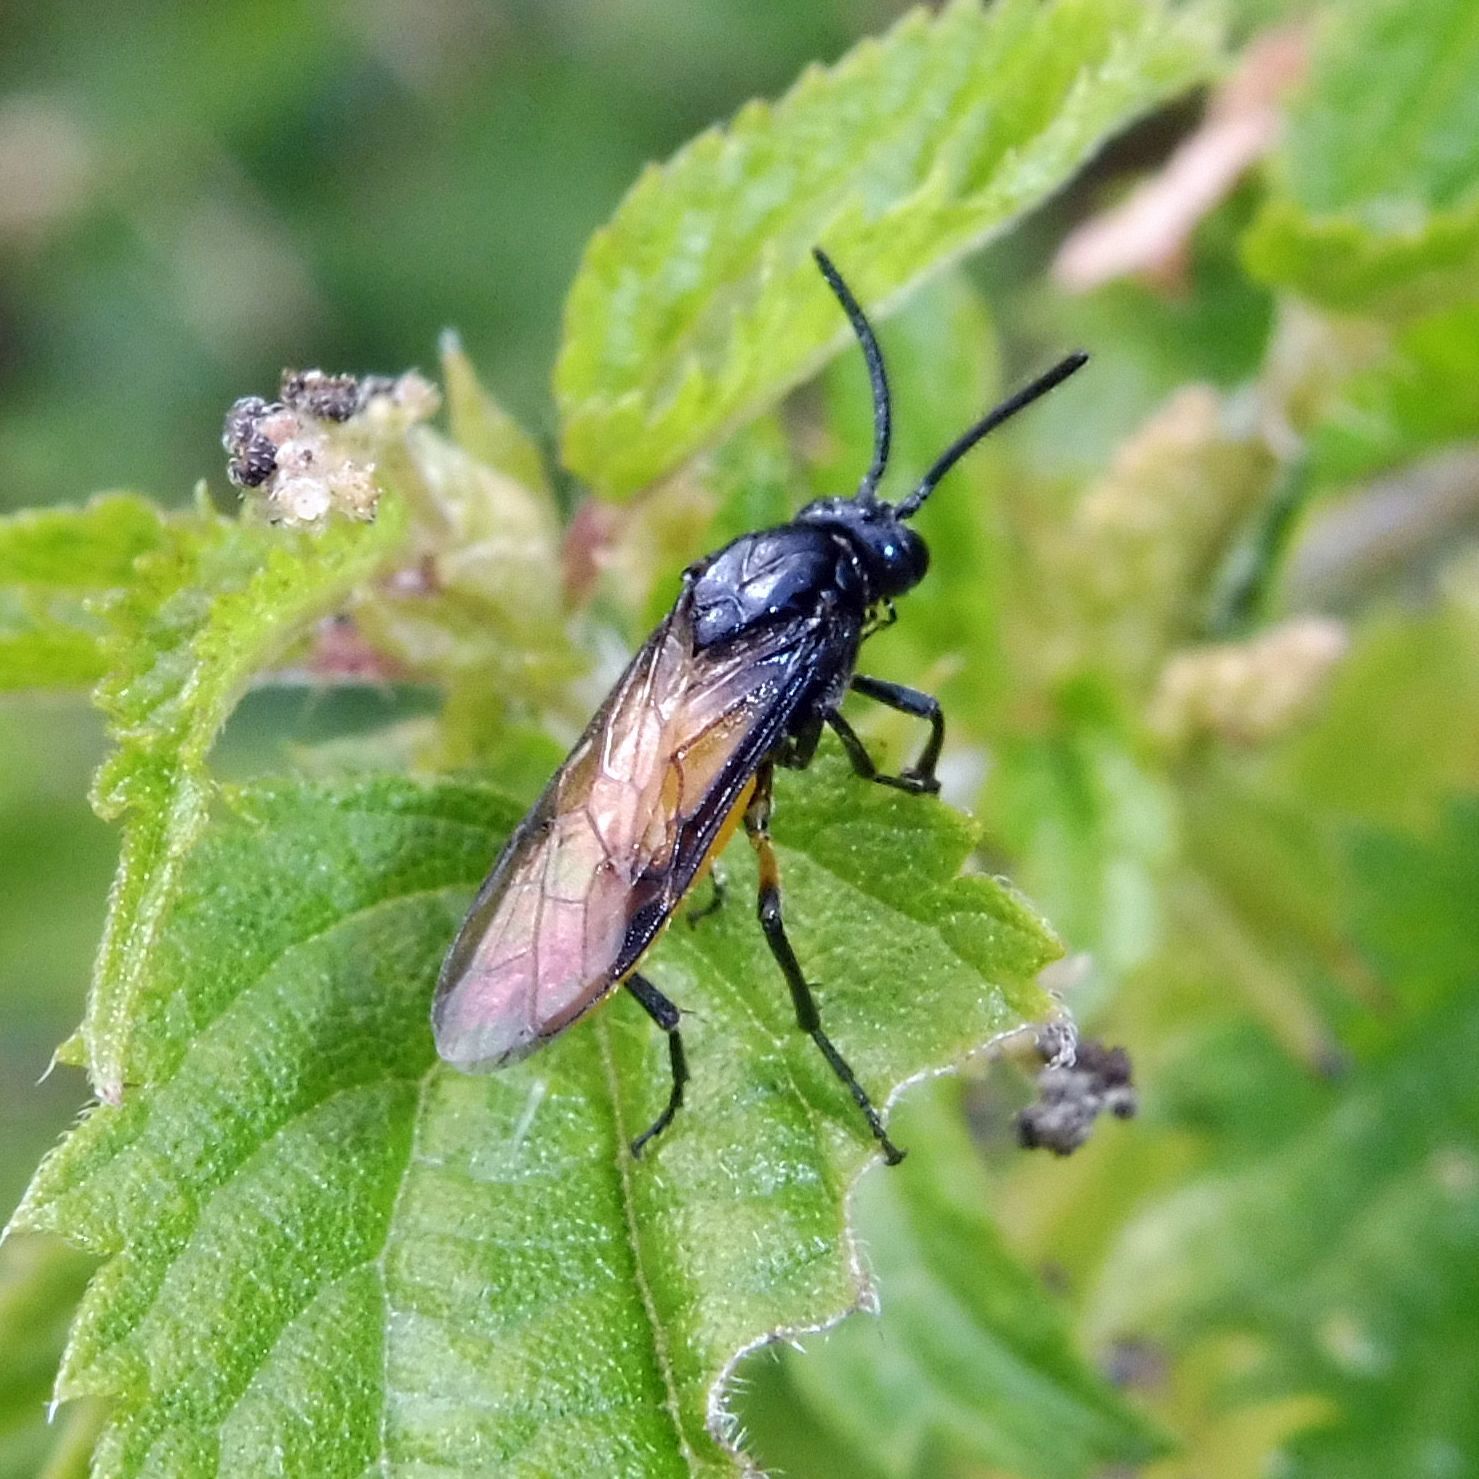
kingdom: Animalia
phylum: Arthropoda
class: Insecta
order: Hymenoptera
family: Argidae
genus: Arge
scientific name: Arge pagana
